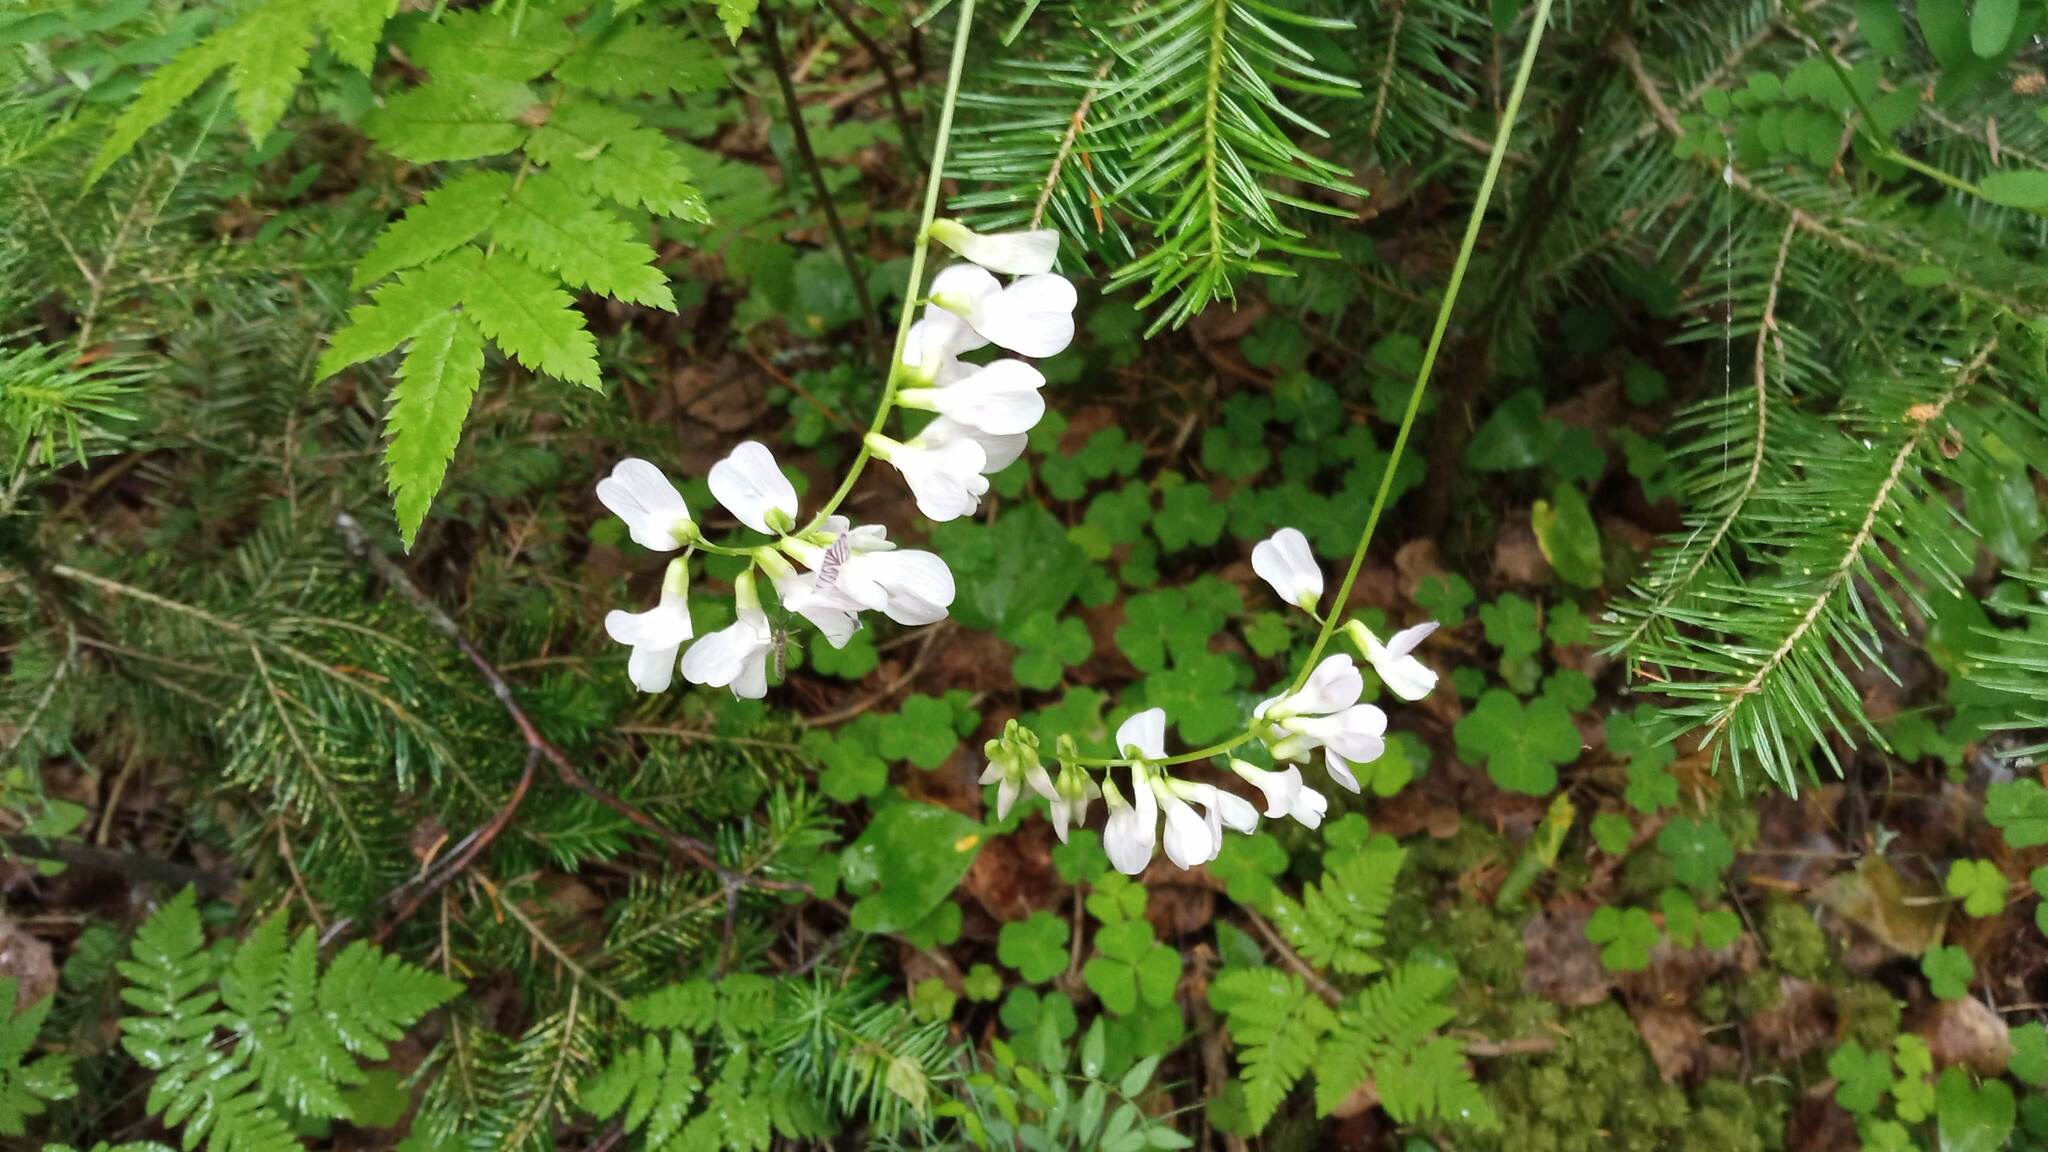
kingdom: Plantae
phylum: Tracheophyta
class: Magnoliopsida
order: Fabales
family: Fabaceae
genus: Vicia
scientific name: Vicia sylvatica
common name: Wood vetch
